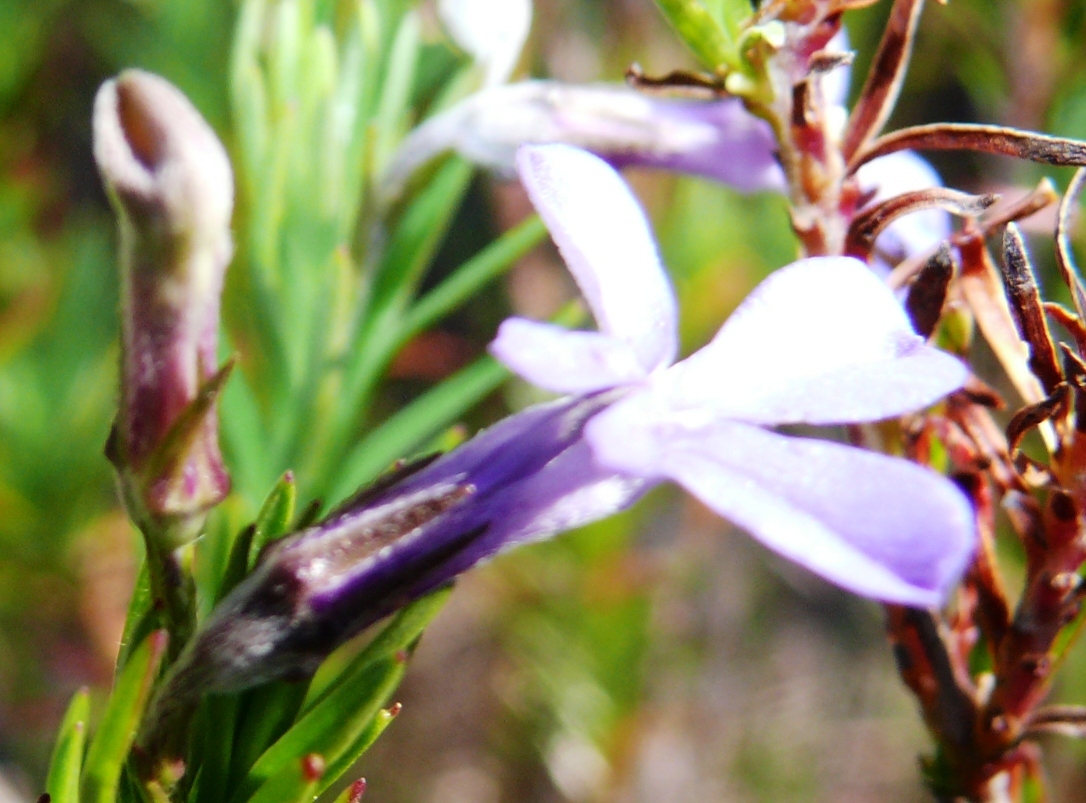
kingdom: Plantae
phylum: Tracheophyta
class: Magnoliopsida
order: Asterales
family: Campanulaceae
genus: Lobelia
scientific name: Lobelia pinifolia
